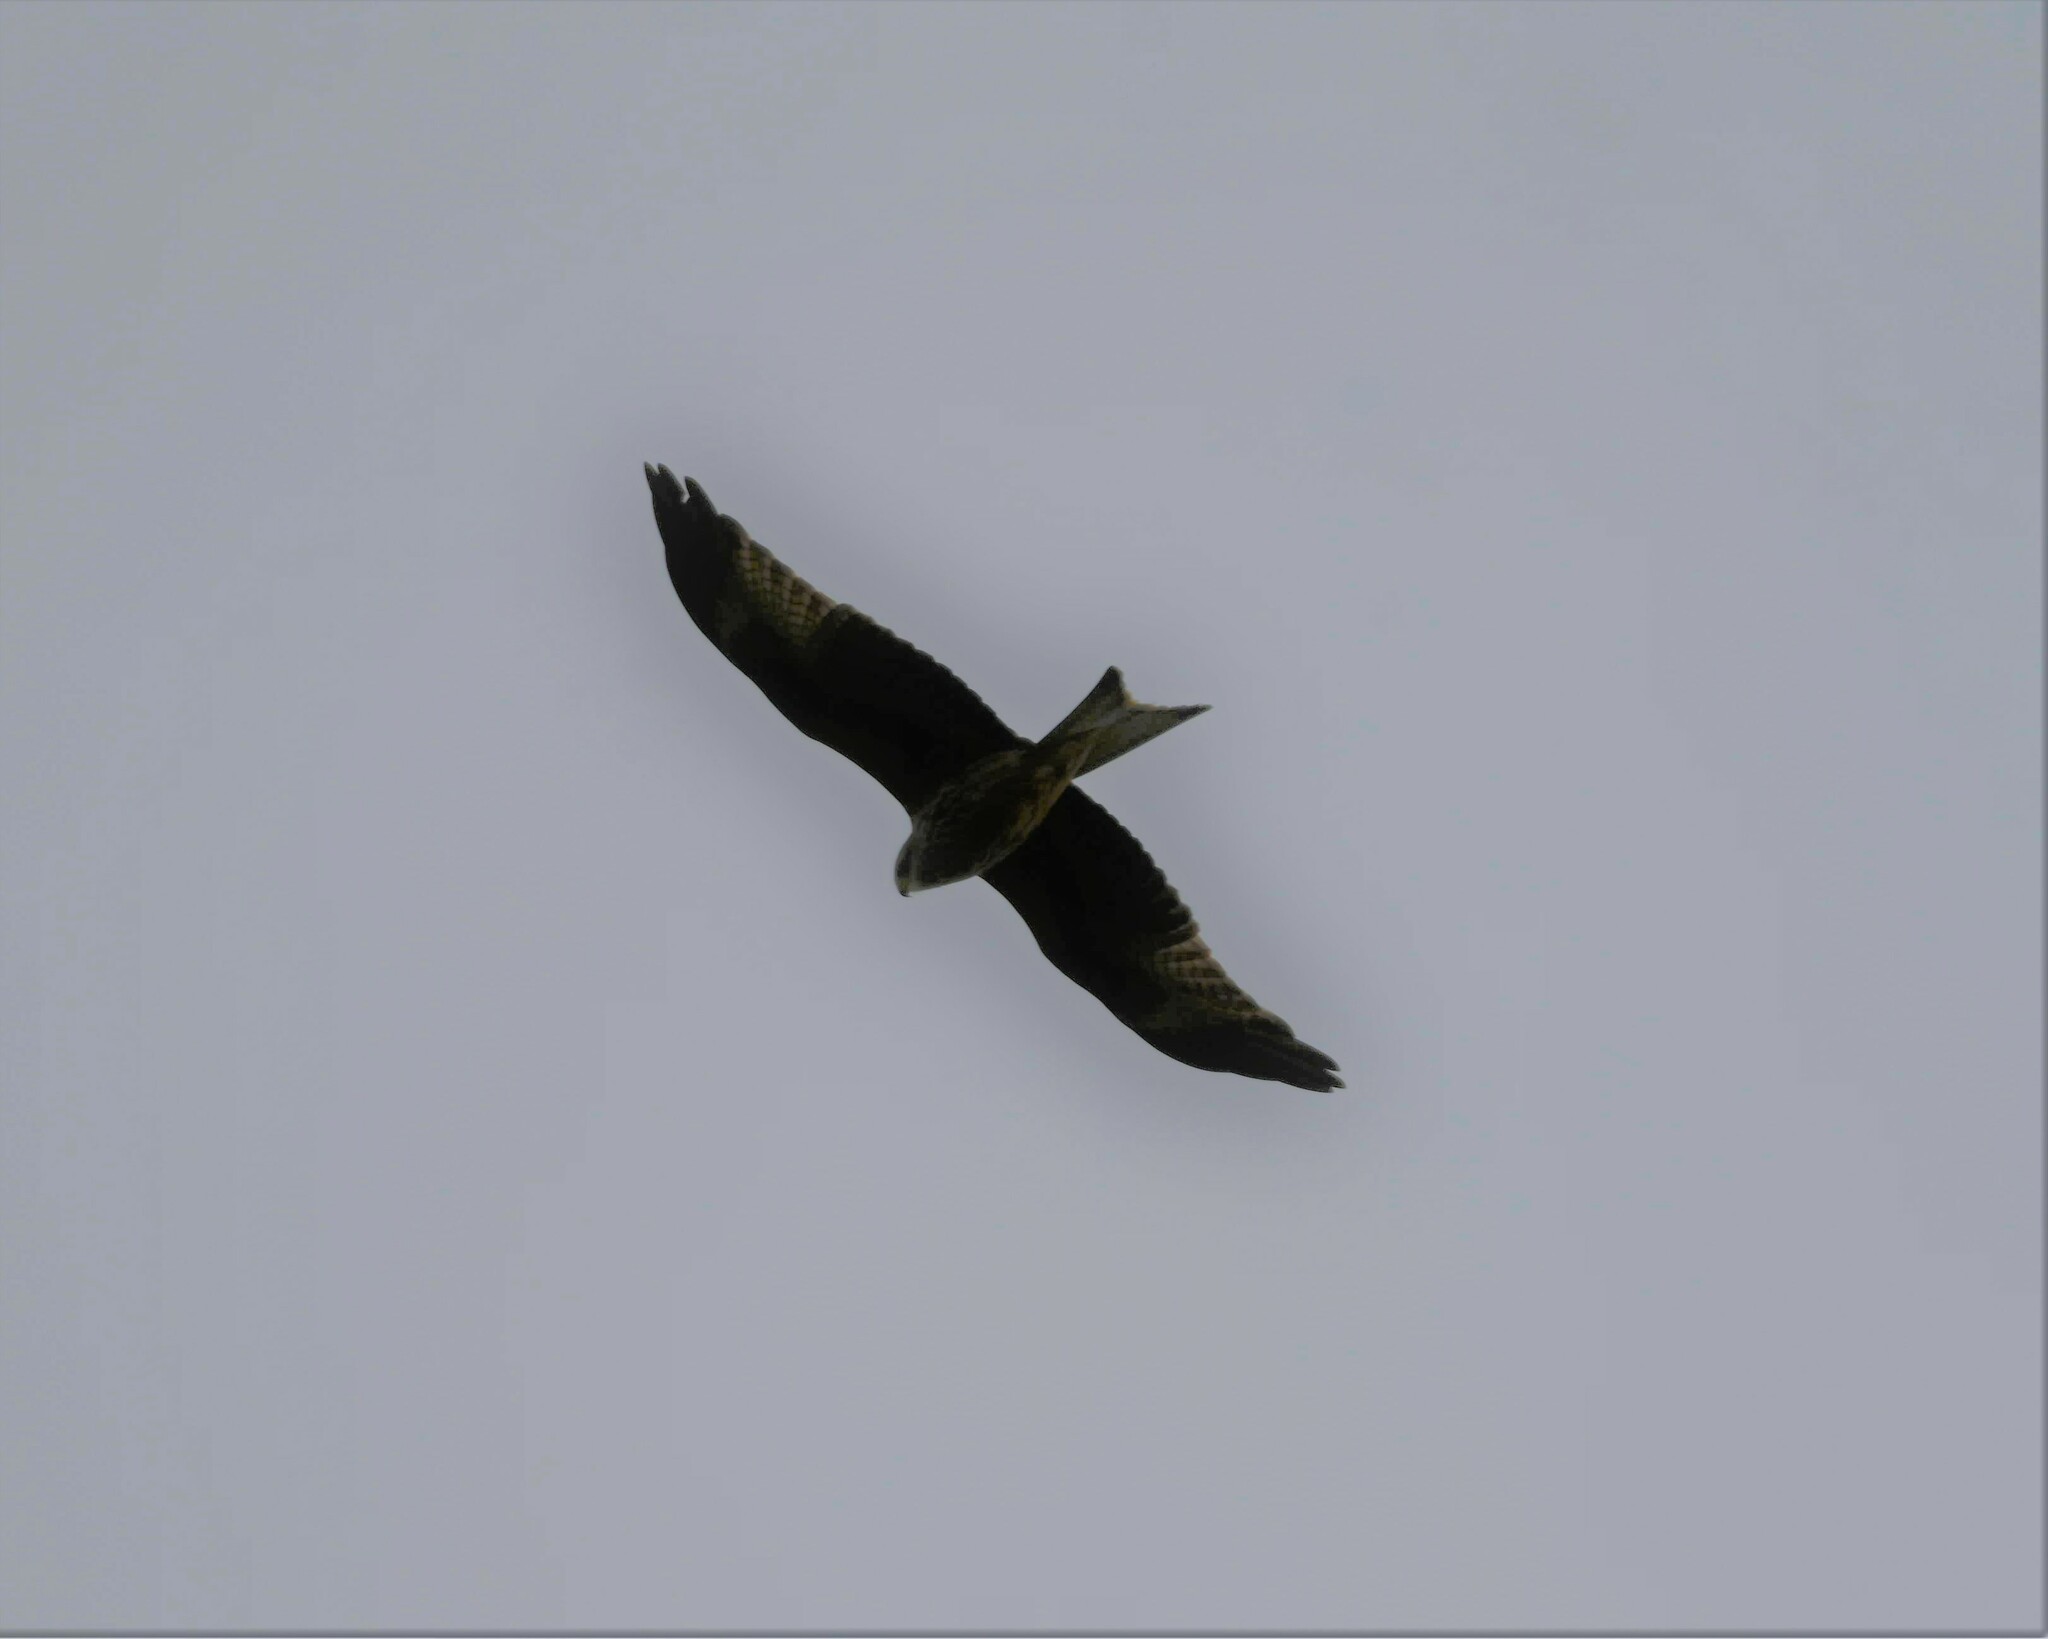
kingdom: Animalia
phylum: Chordata
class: Aves
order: Accipitriformes
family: Accipitridae
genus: Milvus
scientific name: Milvus milvus
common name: Red kite
